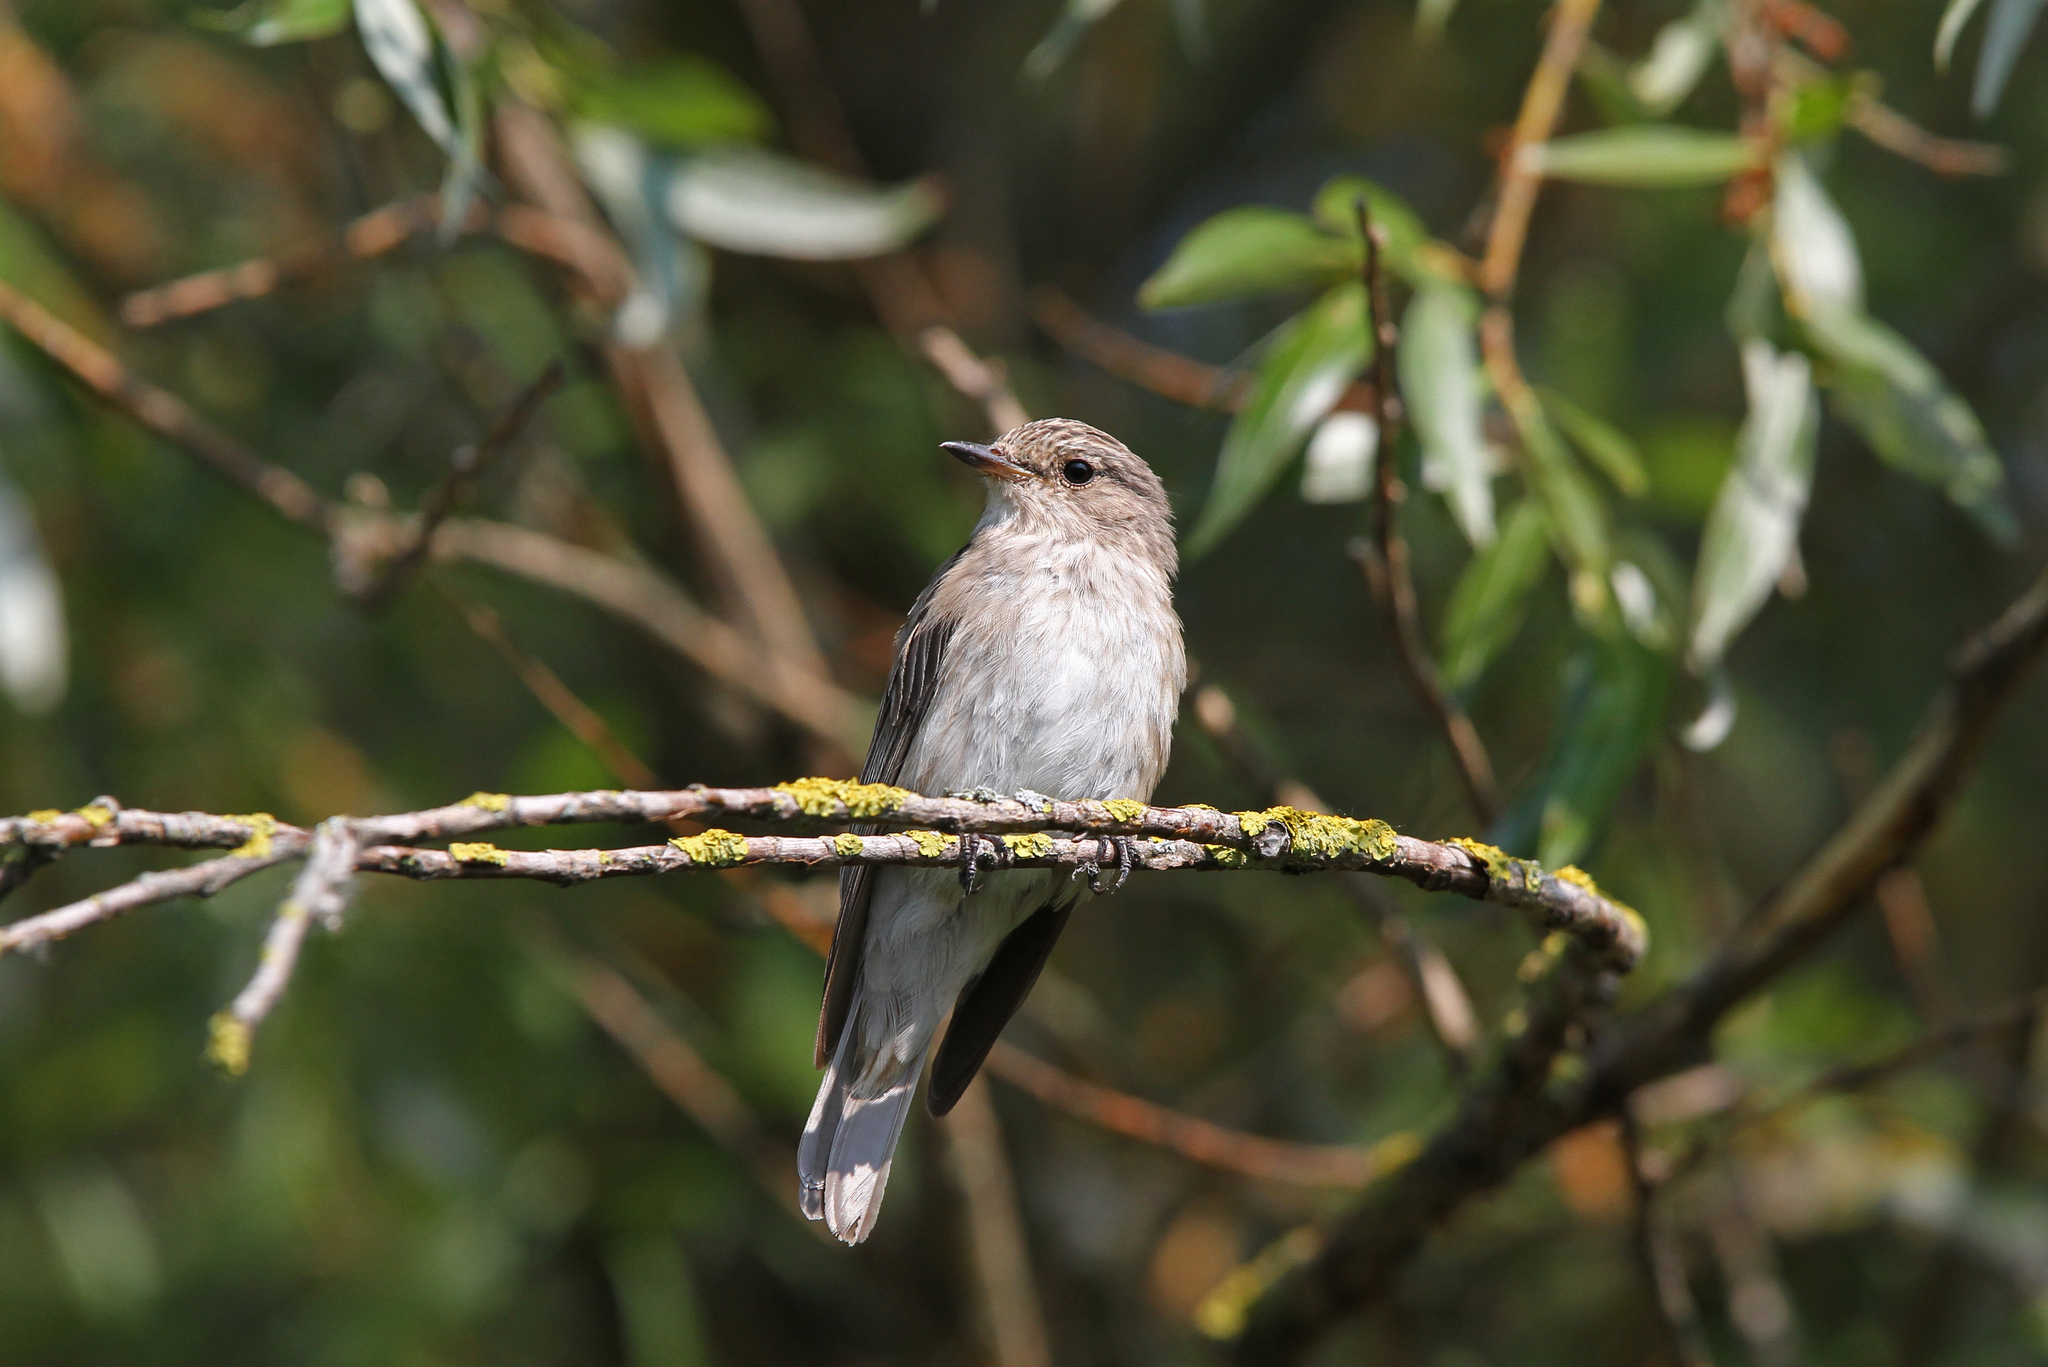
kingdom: Animalia
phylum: Chordata
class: Aves
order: Passeriformes
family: Muscicapidae
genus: Muscicapa
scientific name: Muscicapa striata
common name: Spotted flycatcher
